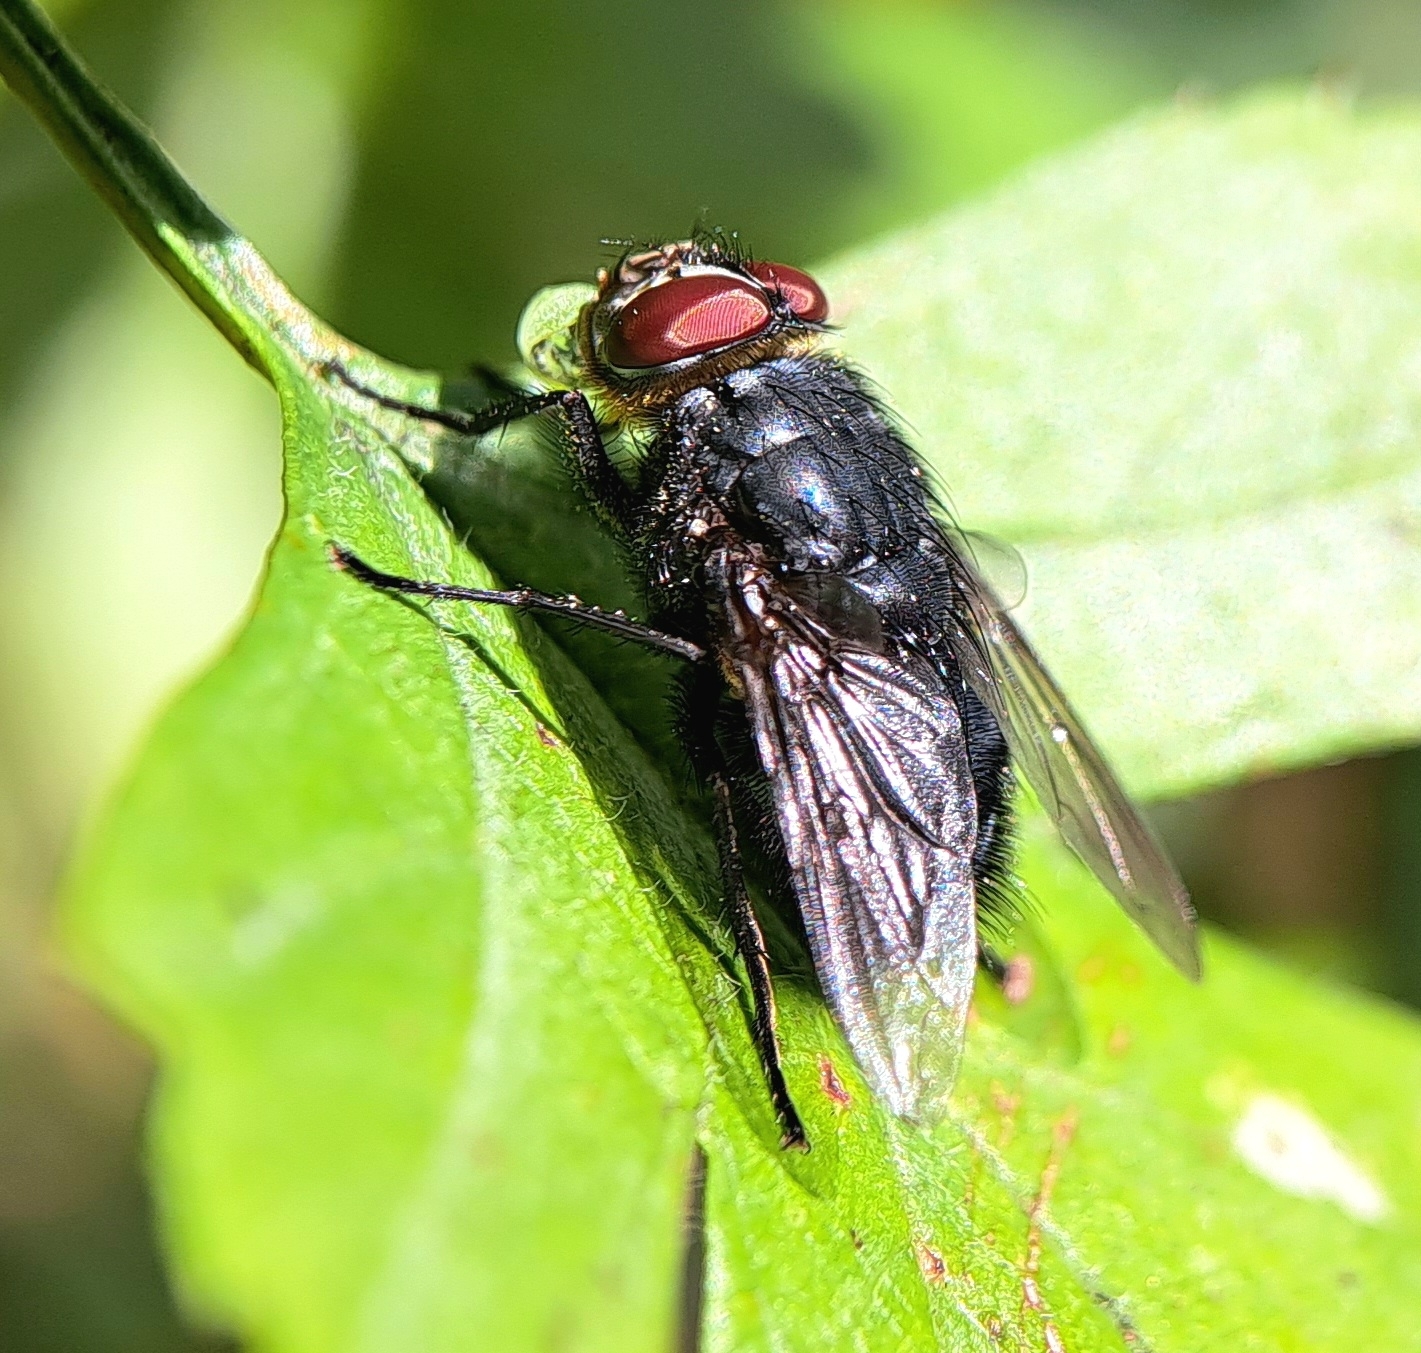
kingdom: Animalia
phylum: Arthropoda
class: Insecta
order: Diptera
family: Calliphoridae
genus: Calliphora
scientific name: Calliphora vomitoria
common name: Blue bottle fly
